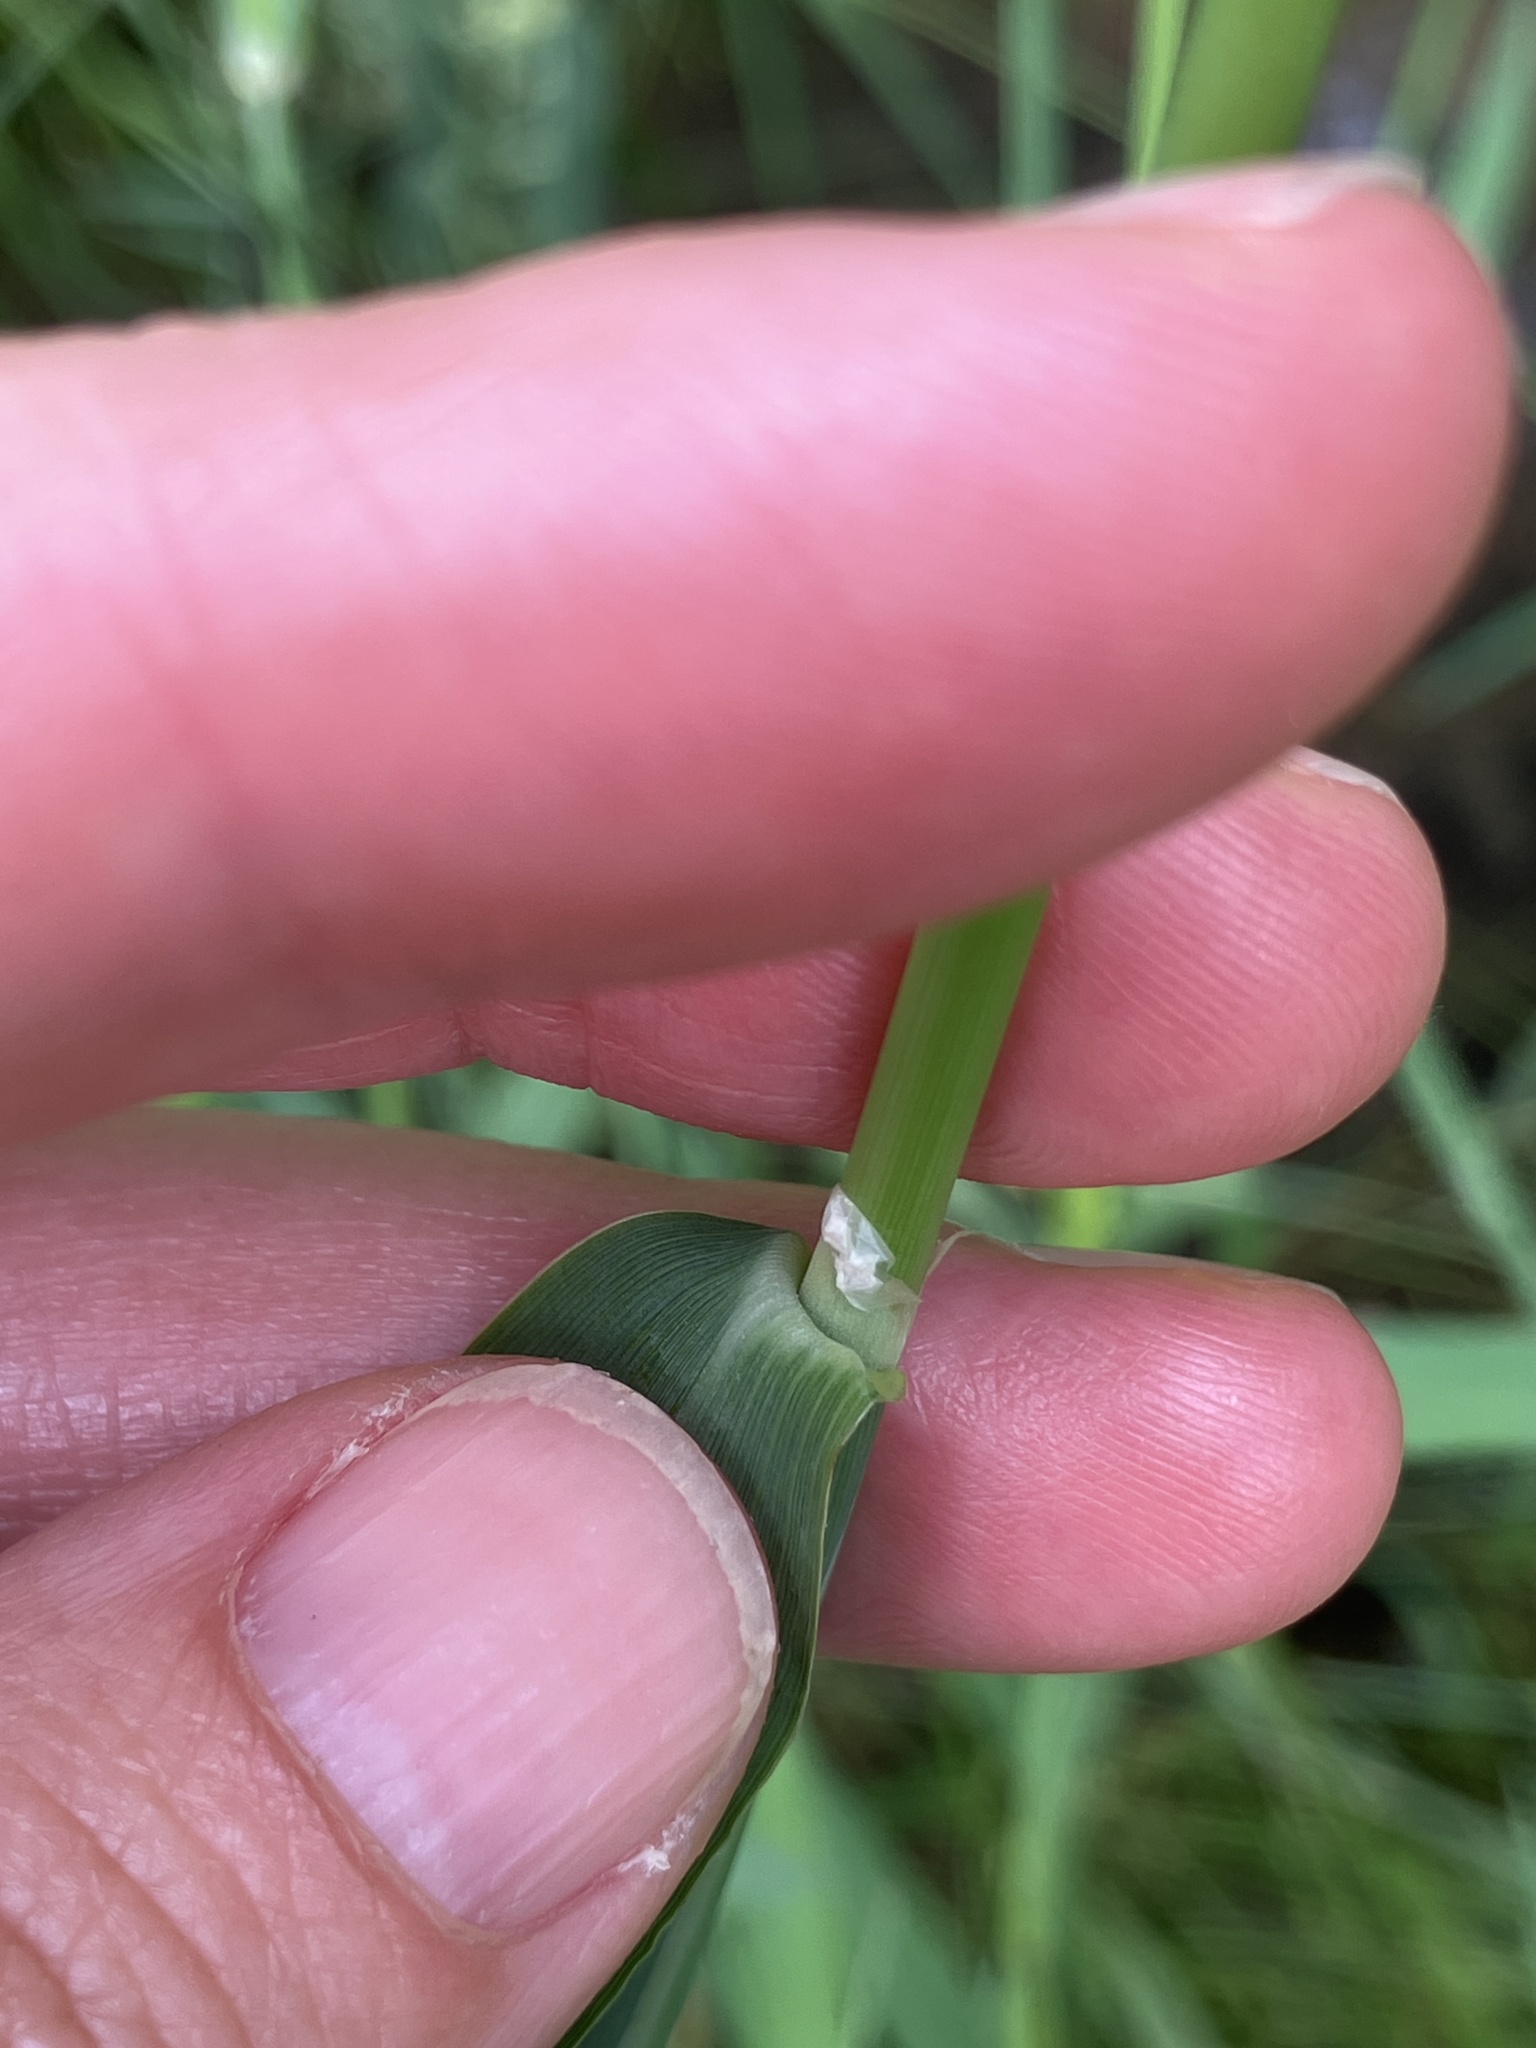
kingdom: Plantae
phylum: Tracheophyta
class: Liliopsida
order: Poales
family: Poaceae
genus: Phalaris
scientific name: Phalaris arundinacea
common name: Reed canary-grass
